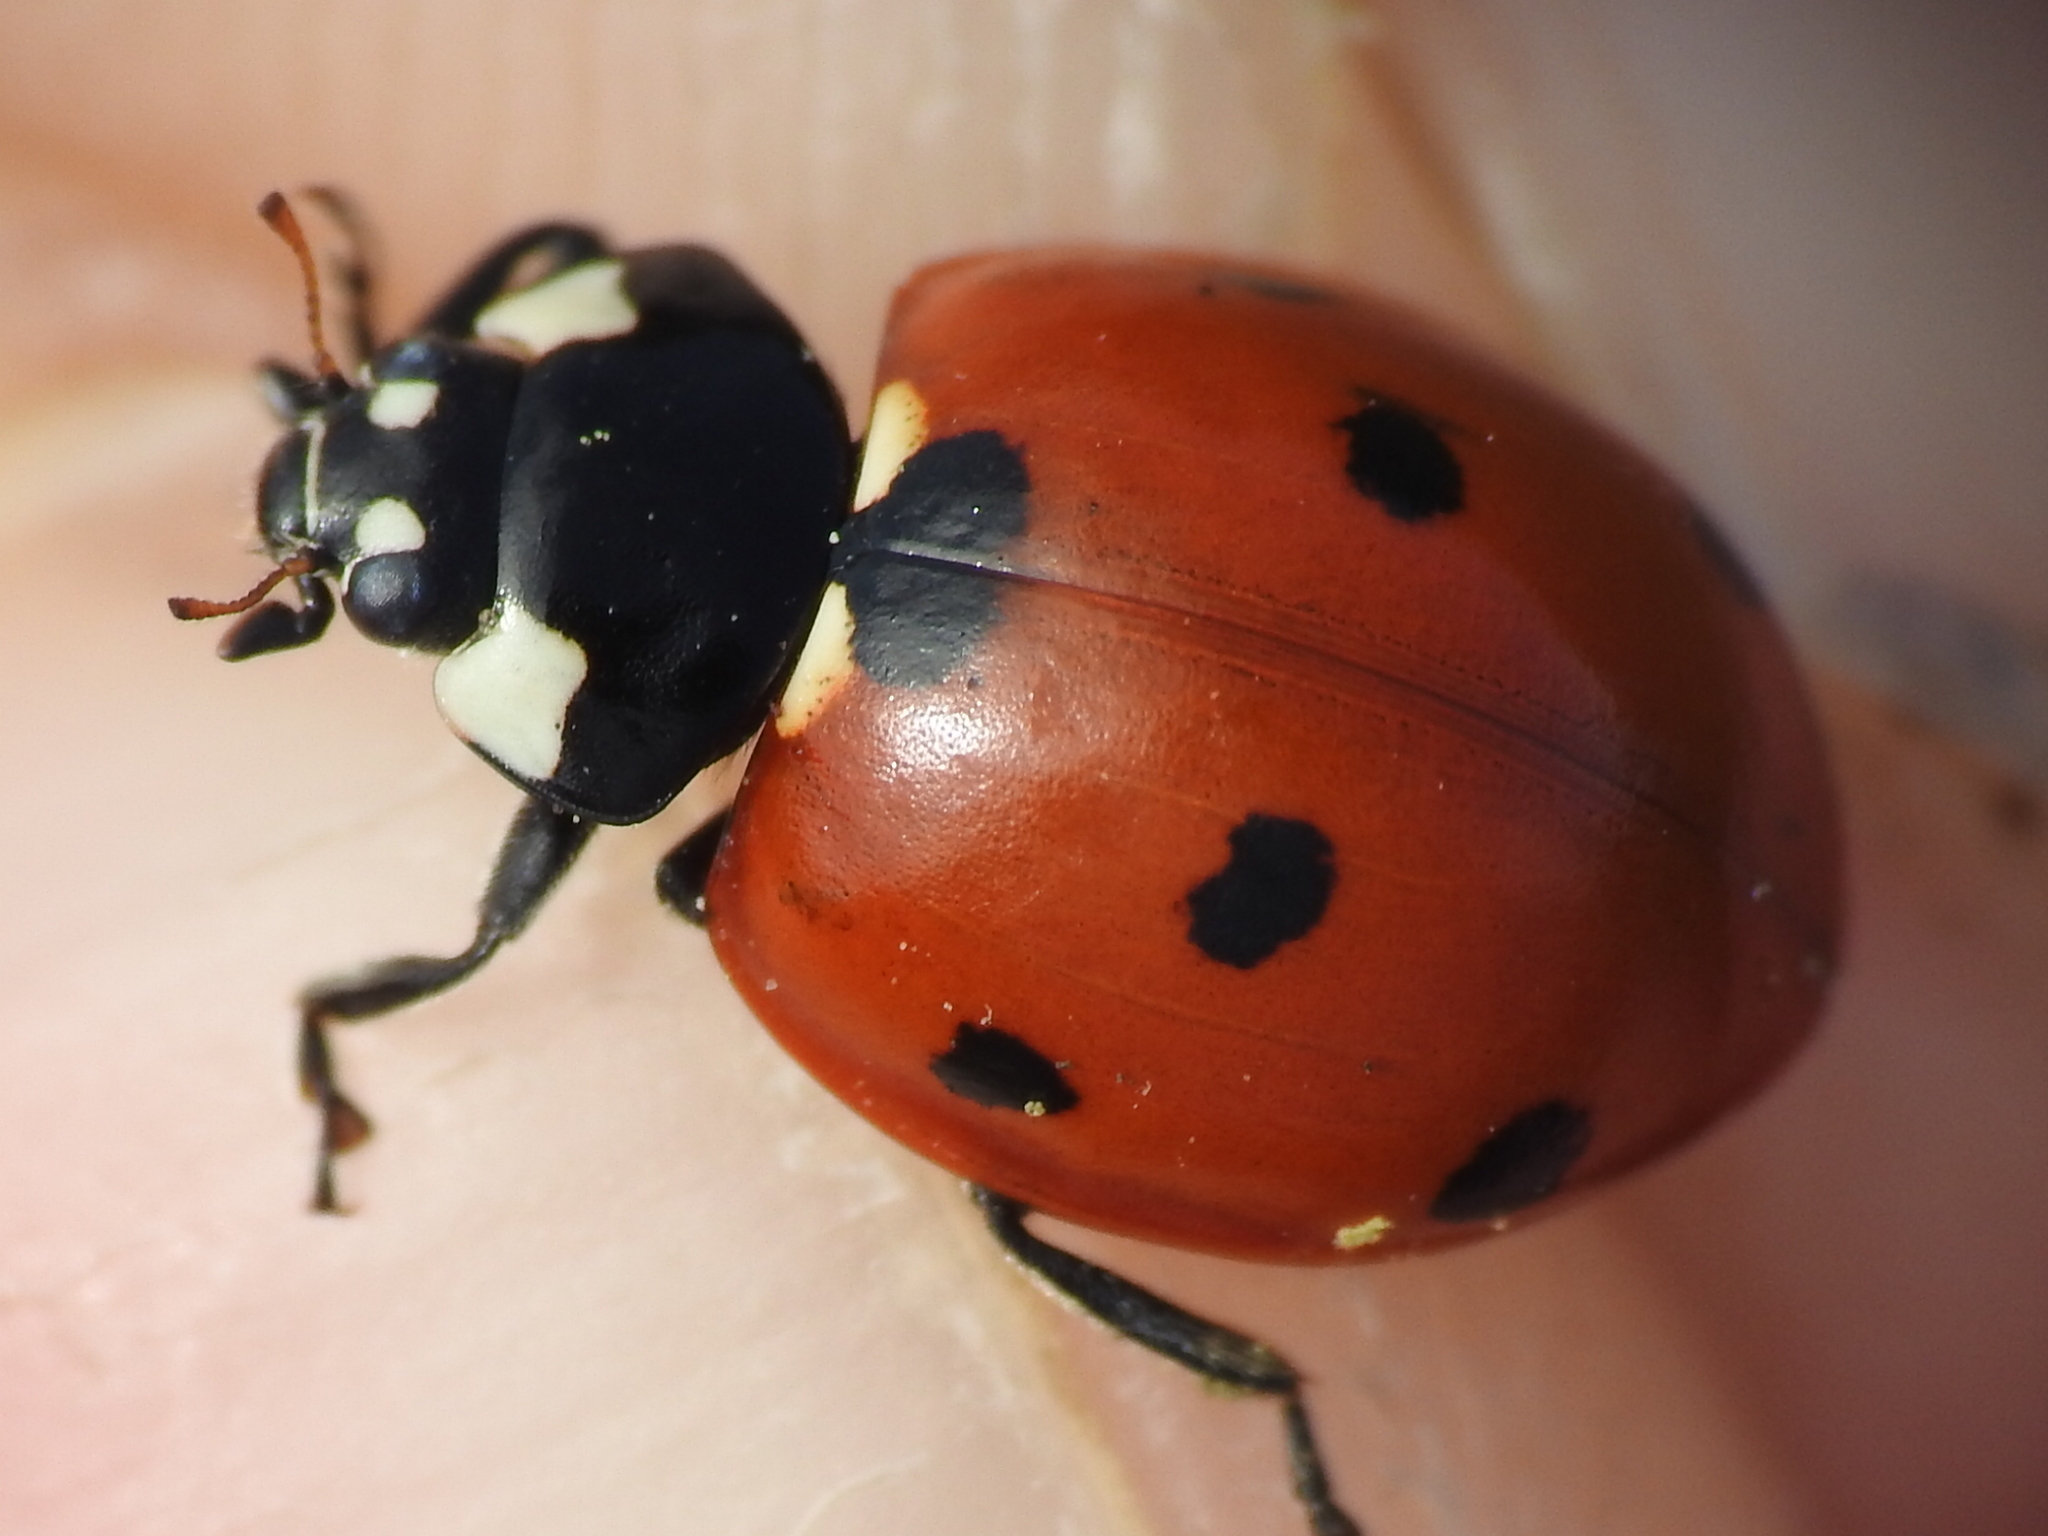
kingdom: Animalia
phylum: Arthropoda
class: Insecta
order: Coleoptera
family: Coccinellidae
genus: Coccinella
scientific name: Coccinella septempunctata
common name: Sevenspotted lady beetle
